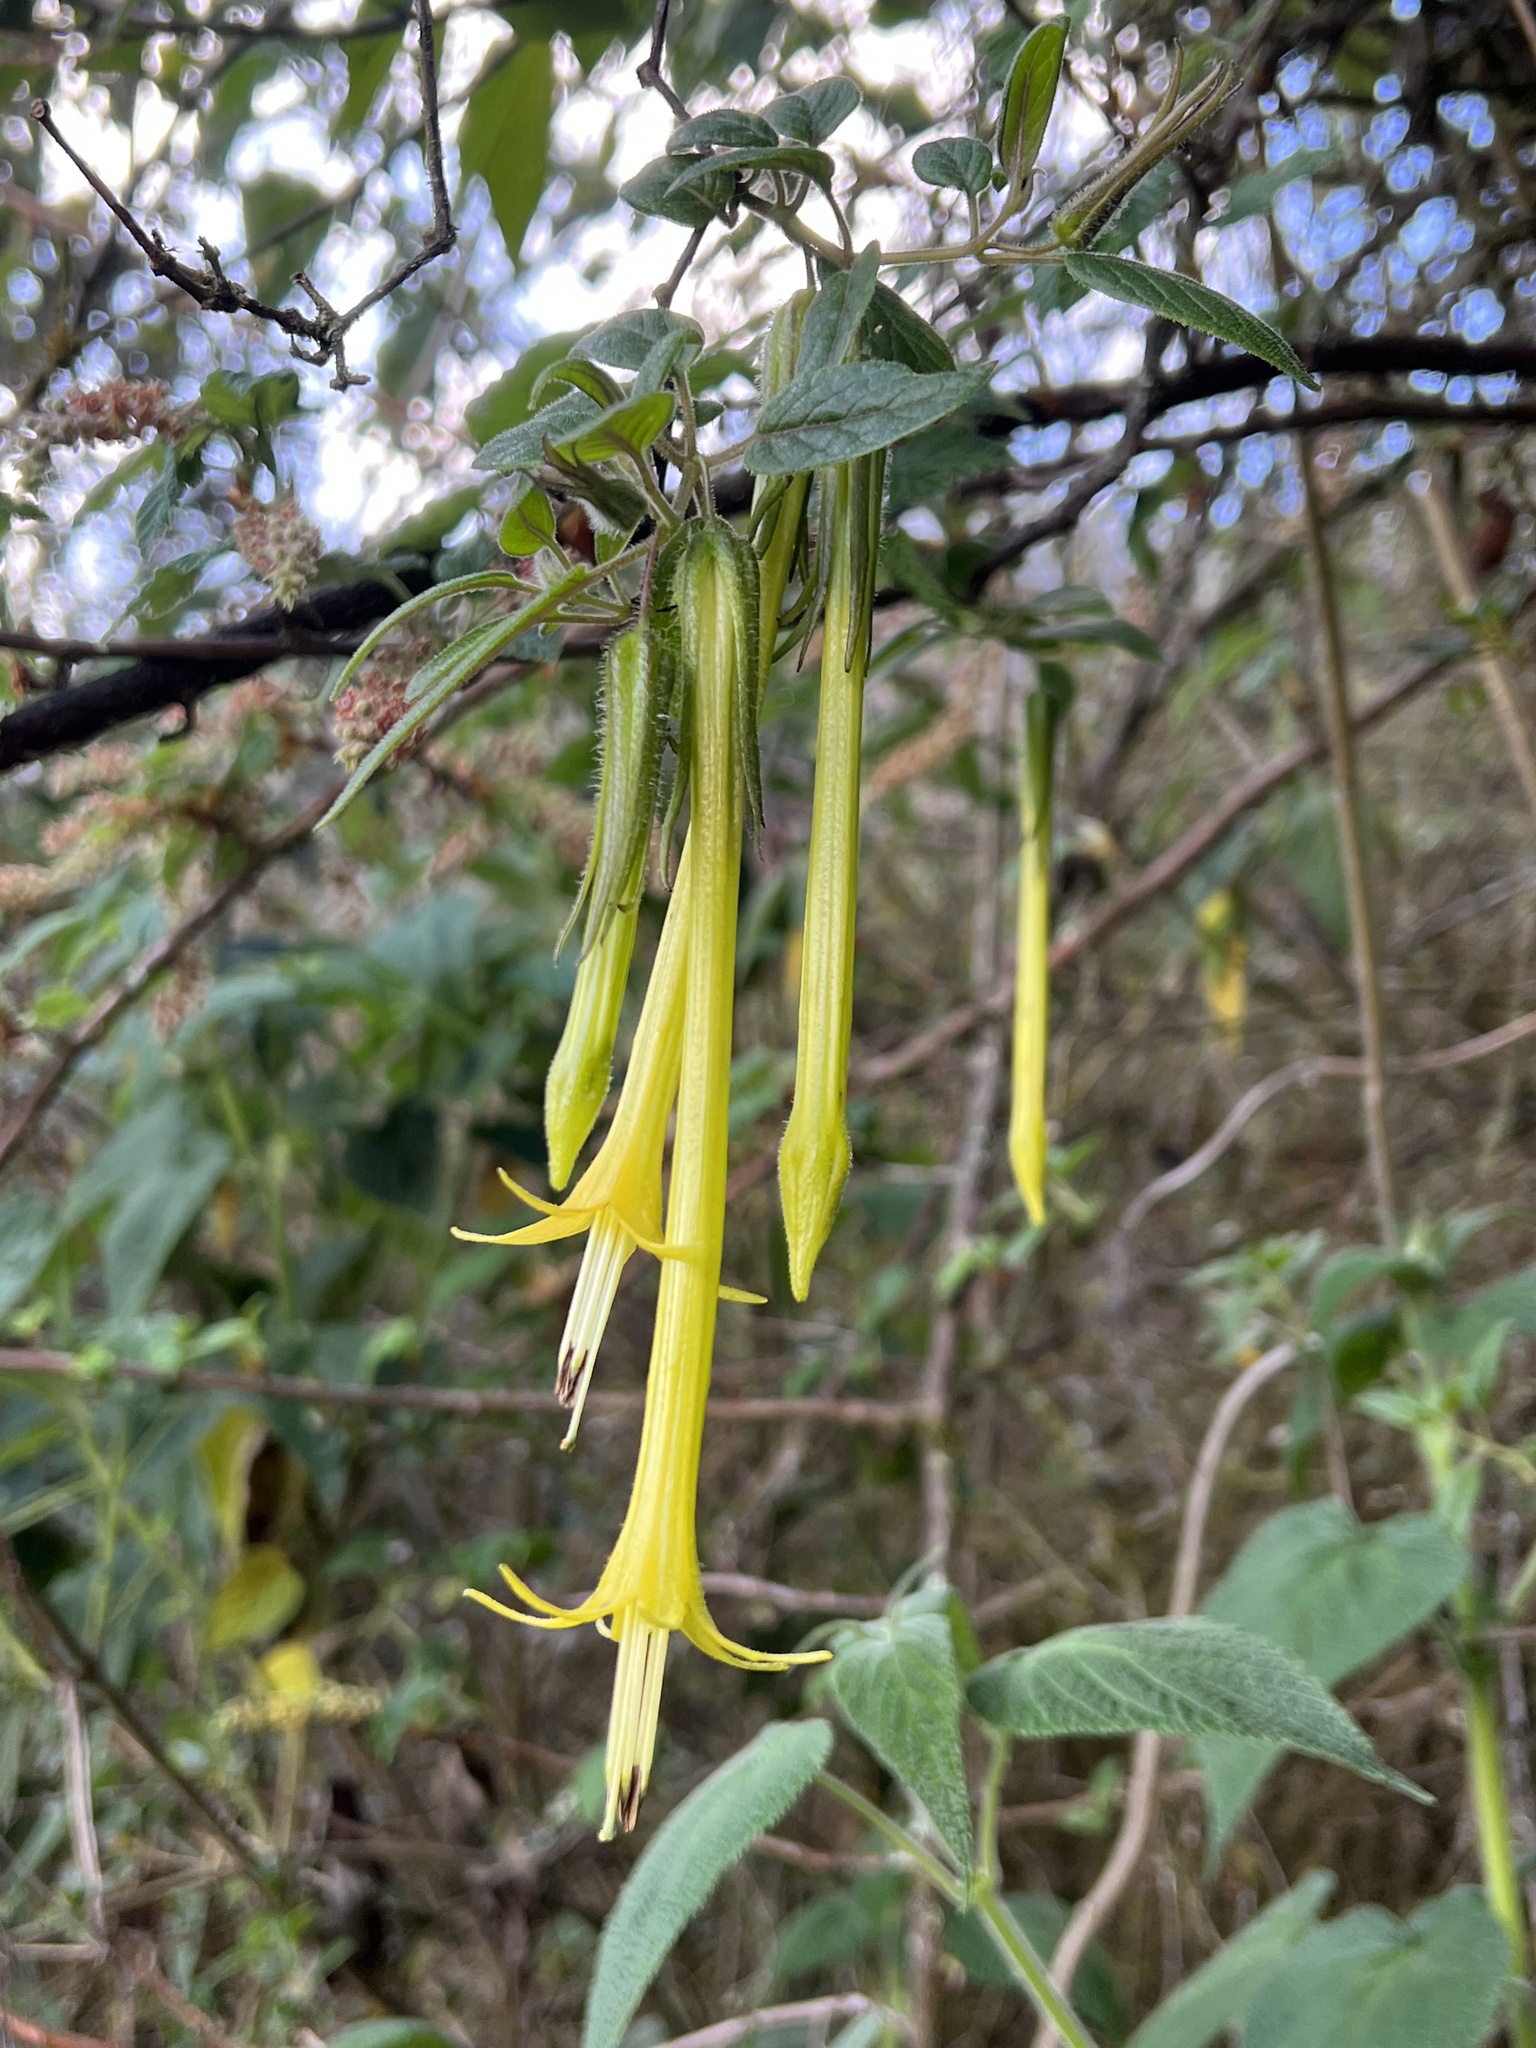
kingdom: Plantae
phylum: Tracheophyta
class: Magnoliopsida
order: Solanales
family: Solanaceae
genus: Salpichroa
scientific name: Salpichroa didierana
